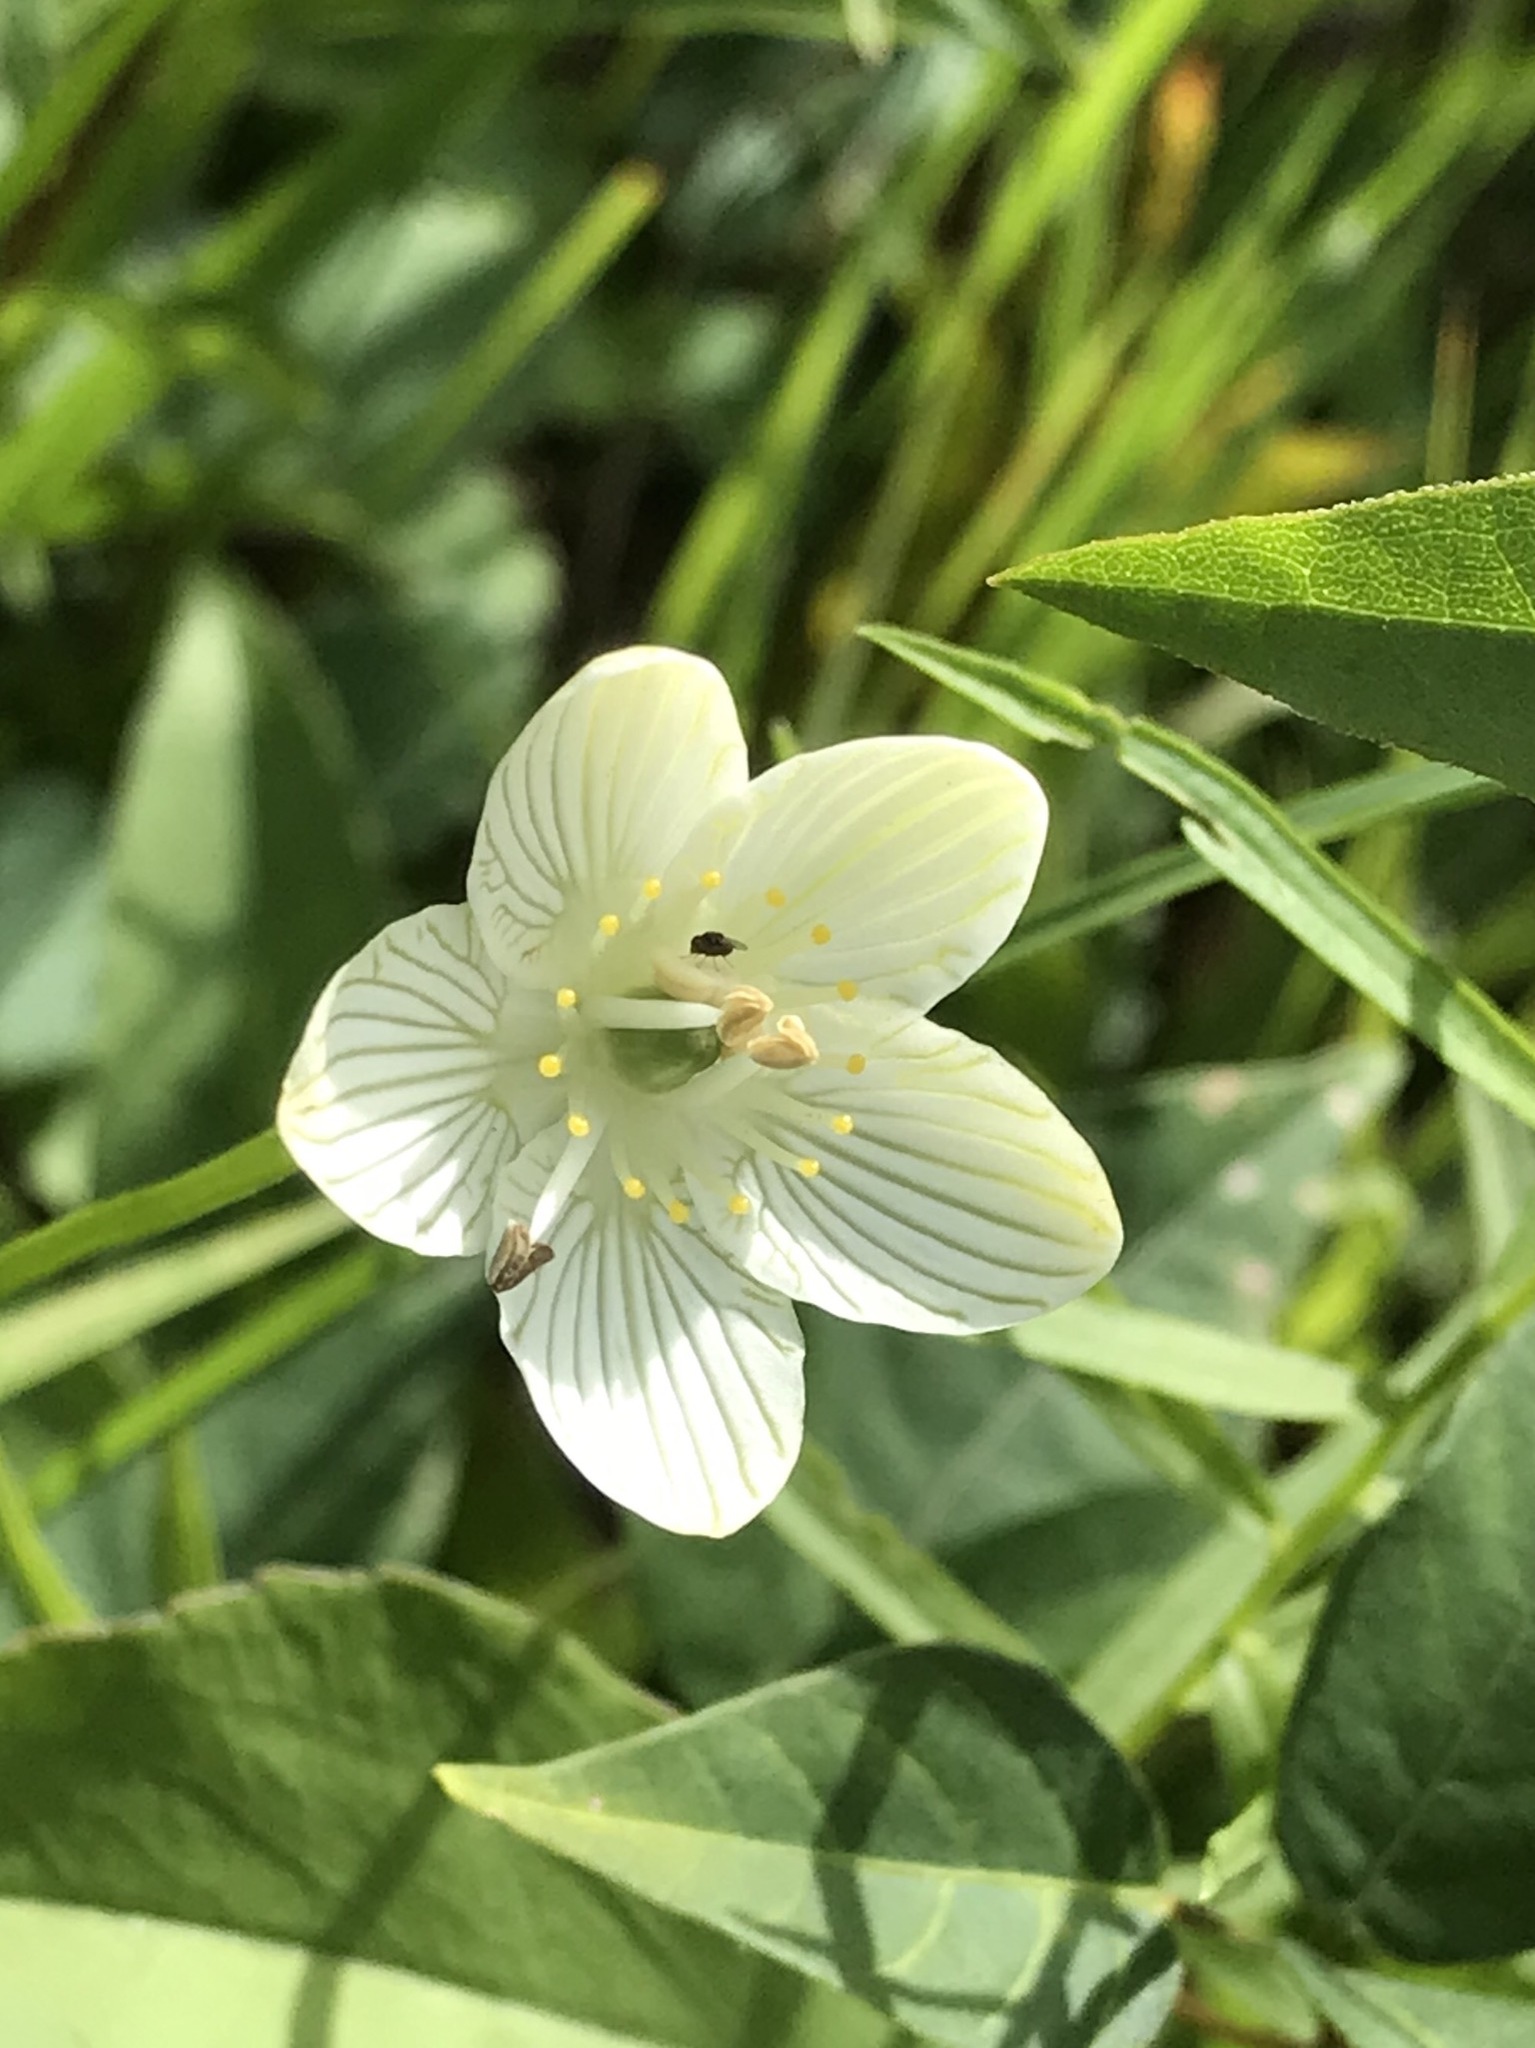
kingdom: Plantae
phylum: Tracheophyta
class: Magnoliopsida
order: Celastrales
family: Parnassiaceae
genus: Parnassia
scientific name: Parnassia glauca
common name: American grass-of-parnassus
